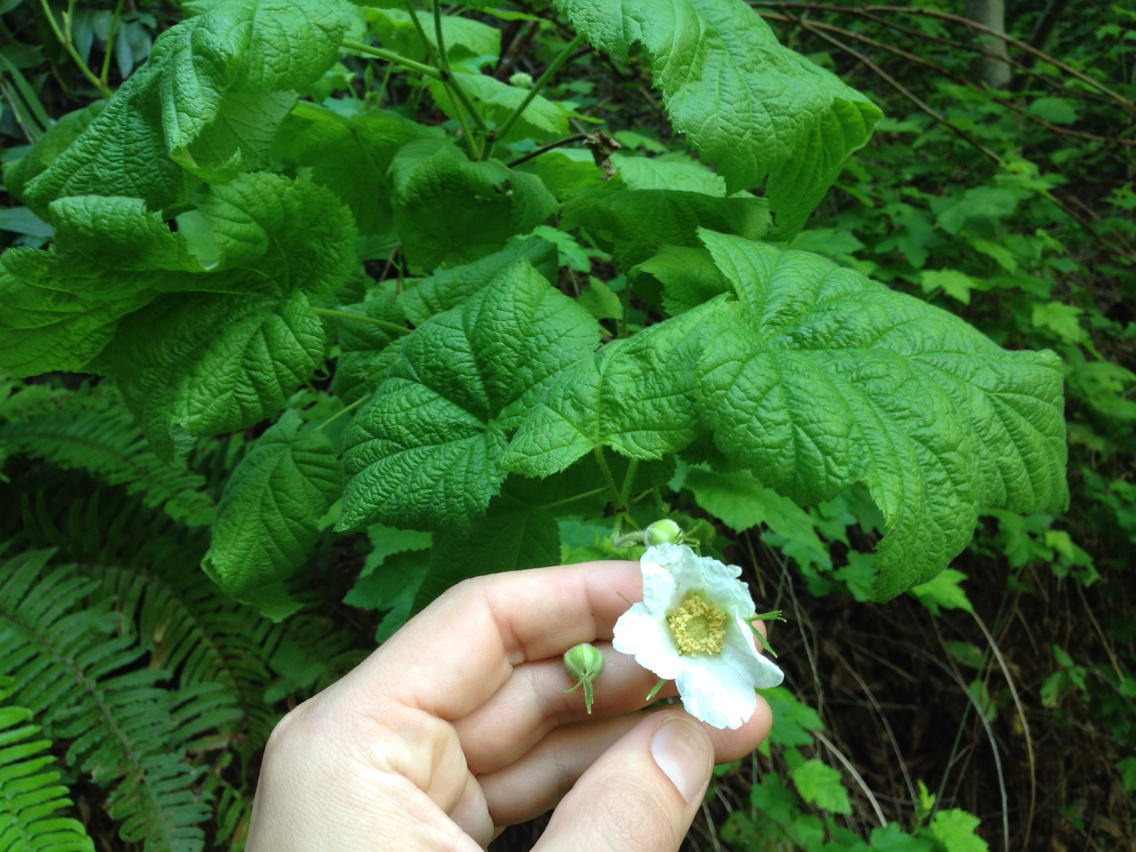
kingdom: Plantae
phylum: Tracheophyta
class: Magnoliopsida
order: Rosales
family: Rosaceae
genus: Rubus
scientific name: Rubus parviflorus
